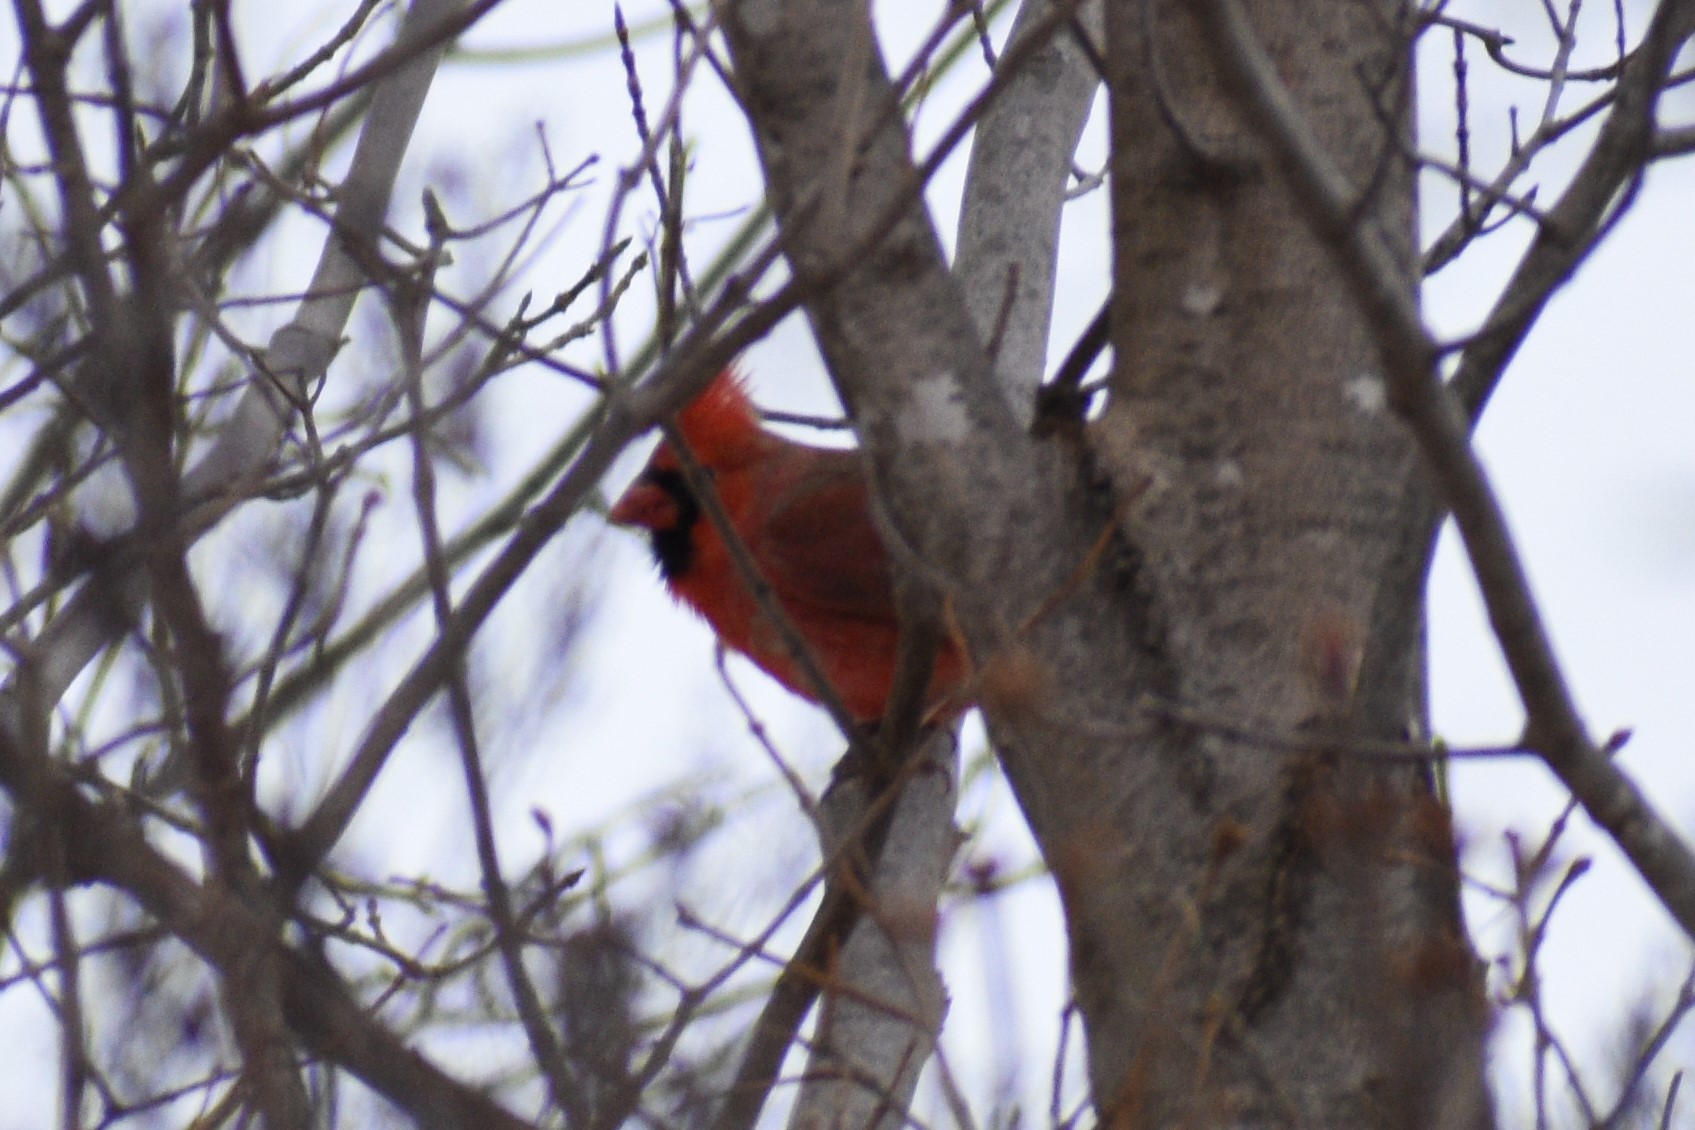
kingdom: Animalia
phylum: Chordata
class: Aves
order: Passeriformes
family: Cardinalidae
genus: Cardinalis
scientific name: Cardinalis cardinalis
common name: Northern cardinal
